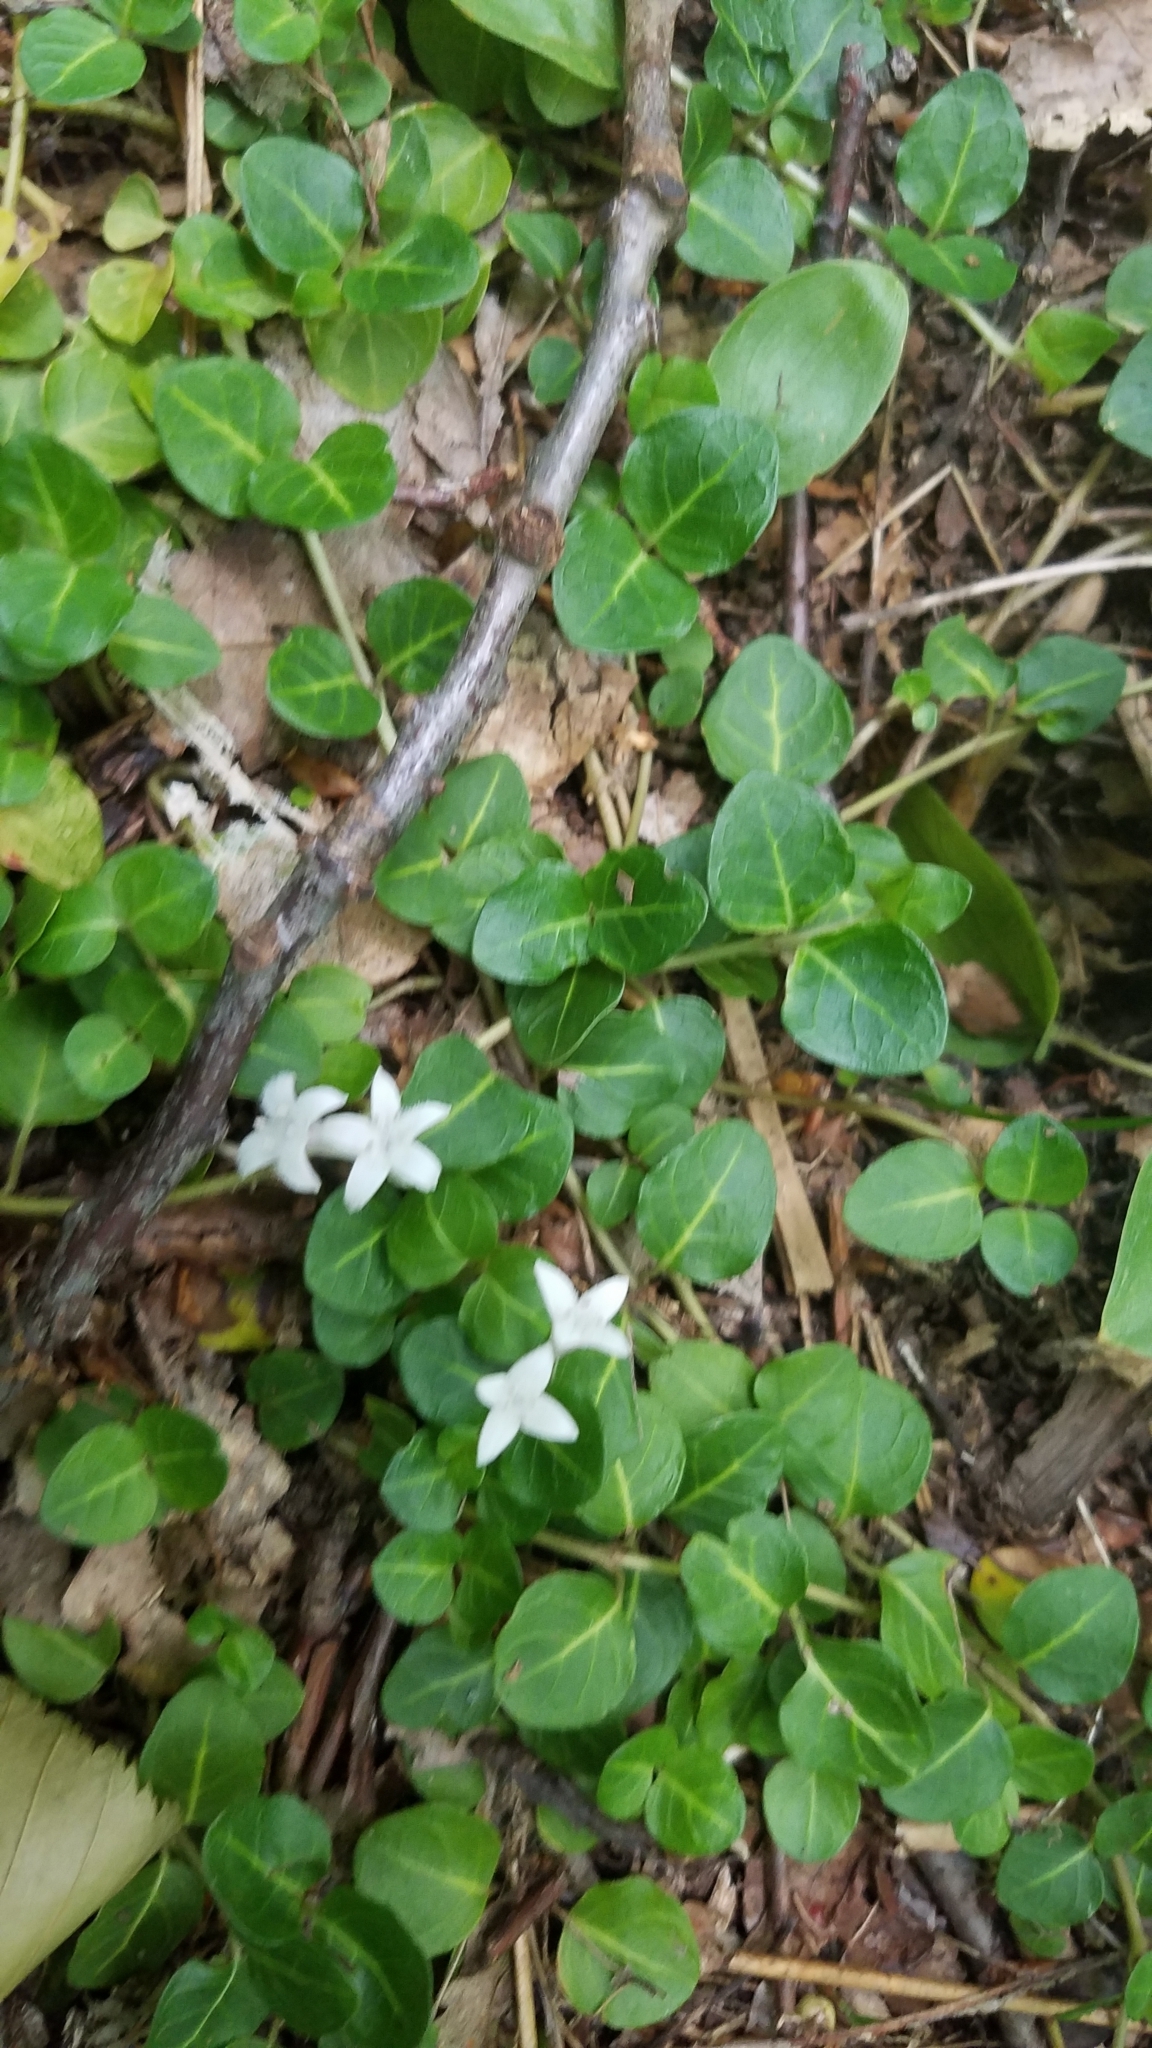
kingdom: Plantae
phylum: Tracheophyta
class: Magnoliopsida
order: Gentianales
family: Rubiaceae
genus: Mitchella
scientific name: Mitchella repens
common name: Partridge-berry
